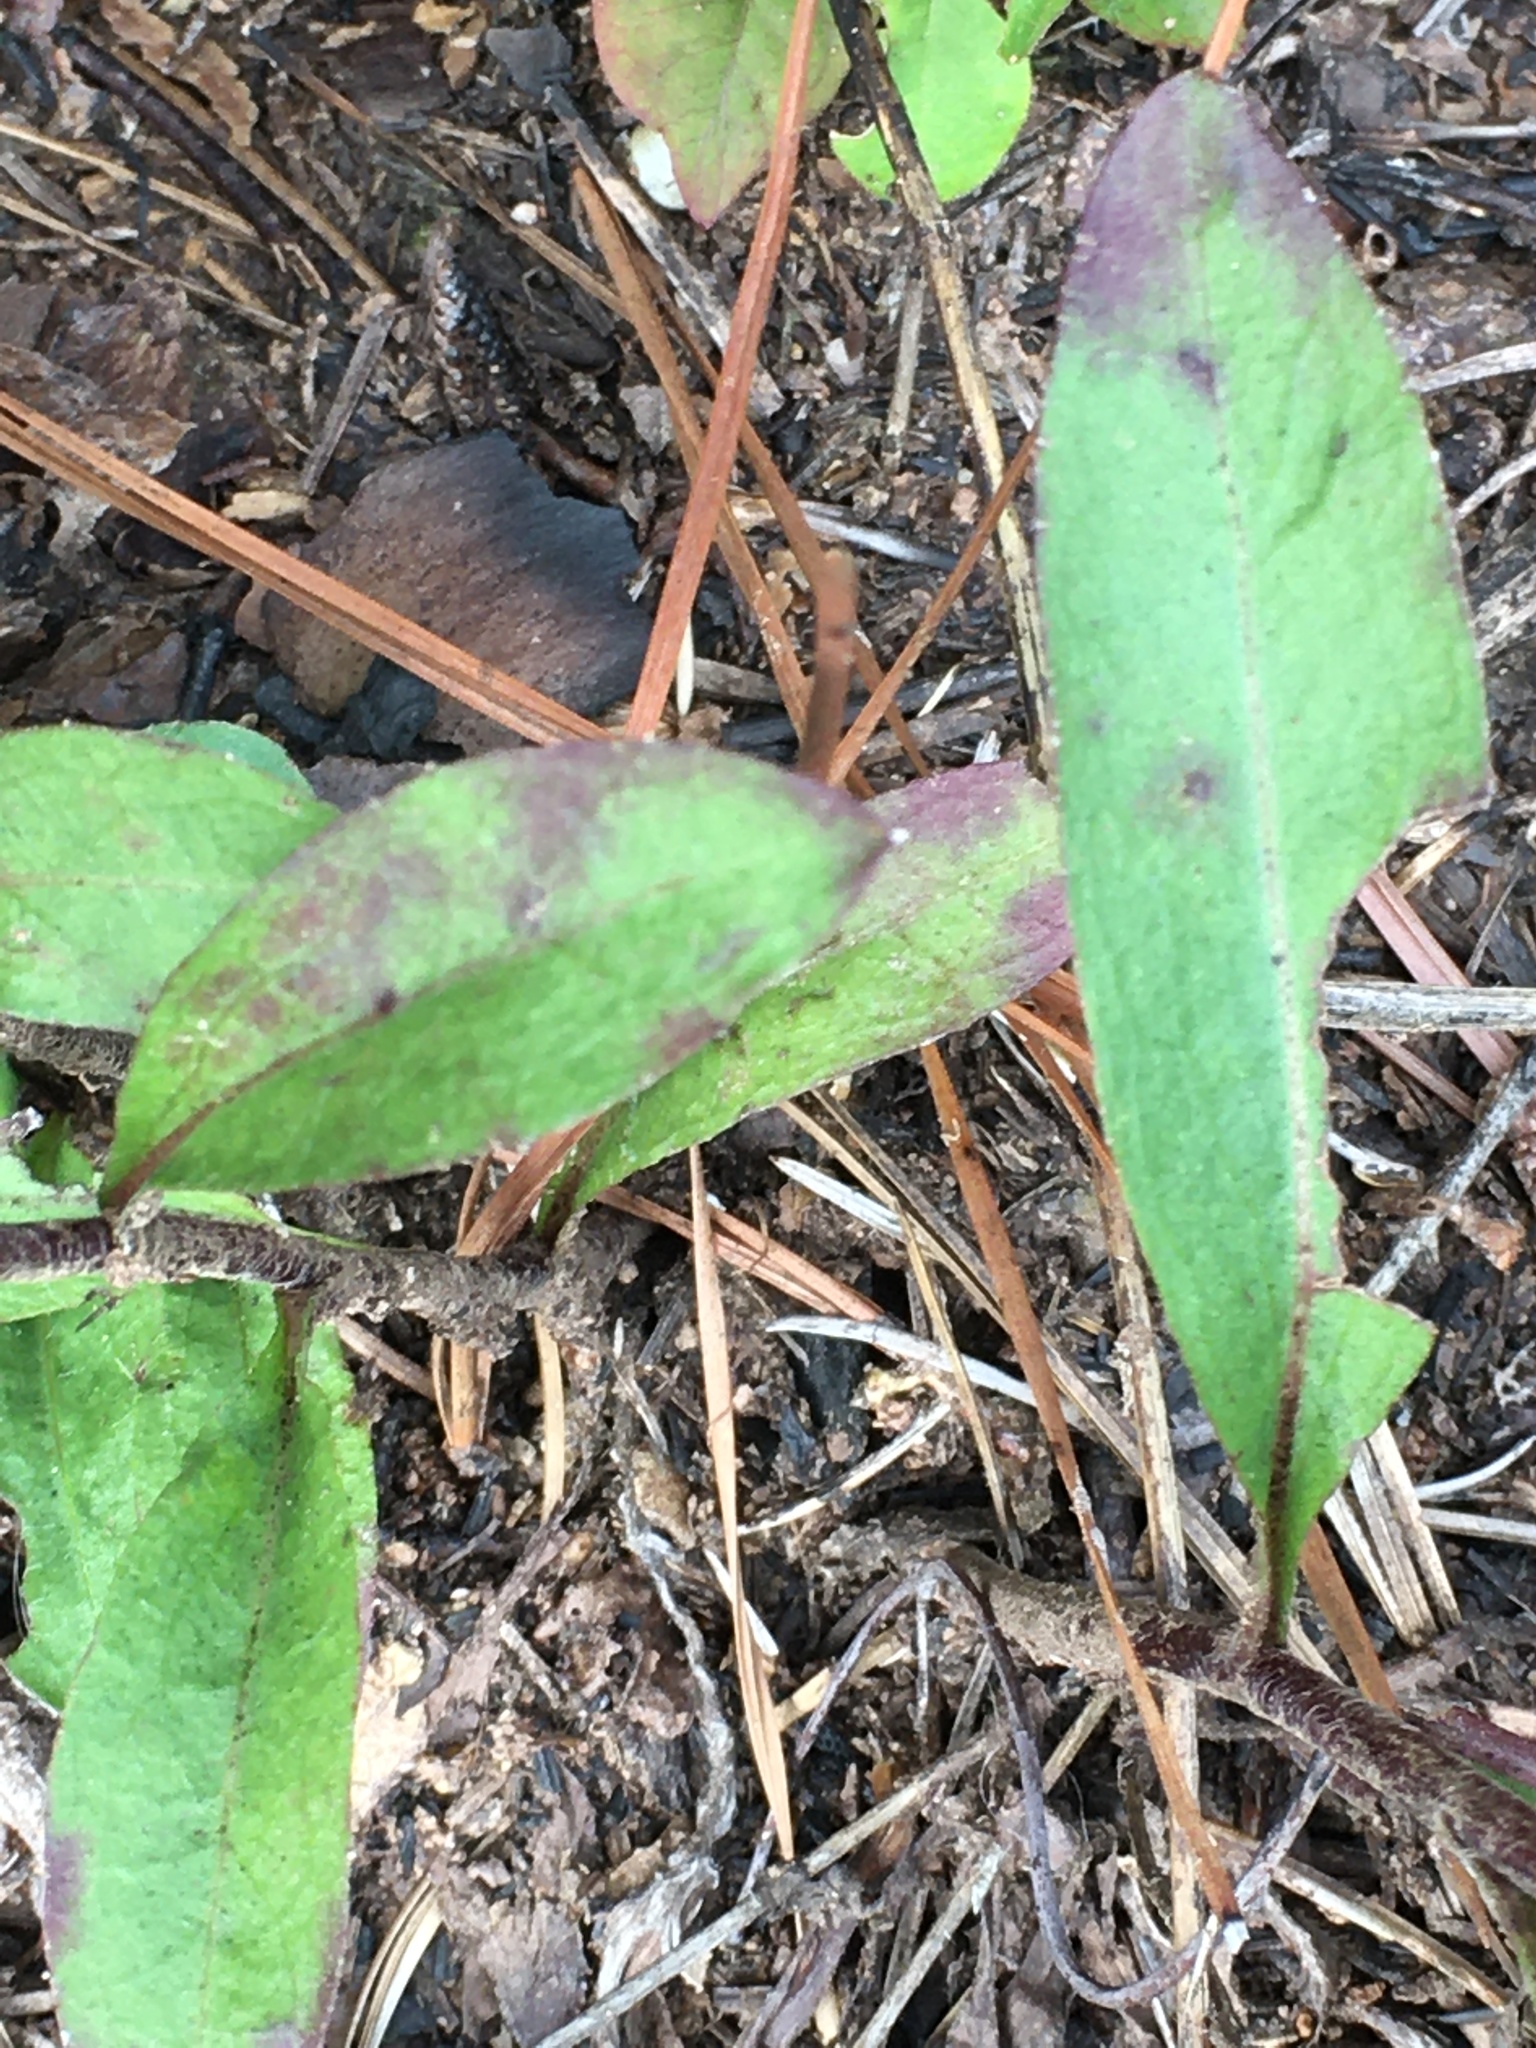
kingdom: Plantae
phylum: Tracheophyta
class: Magnoliopsida
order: Asterales
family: Asteraceae
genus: Chrysopsis
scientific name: Chrysopsis mariana
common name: Maryland golden-aster
